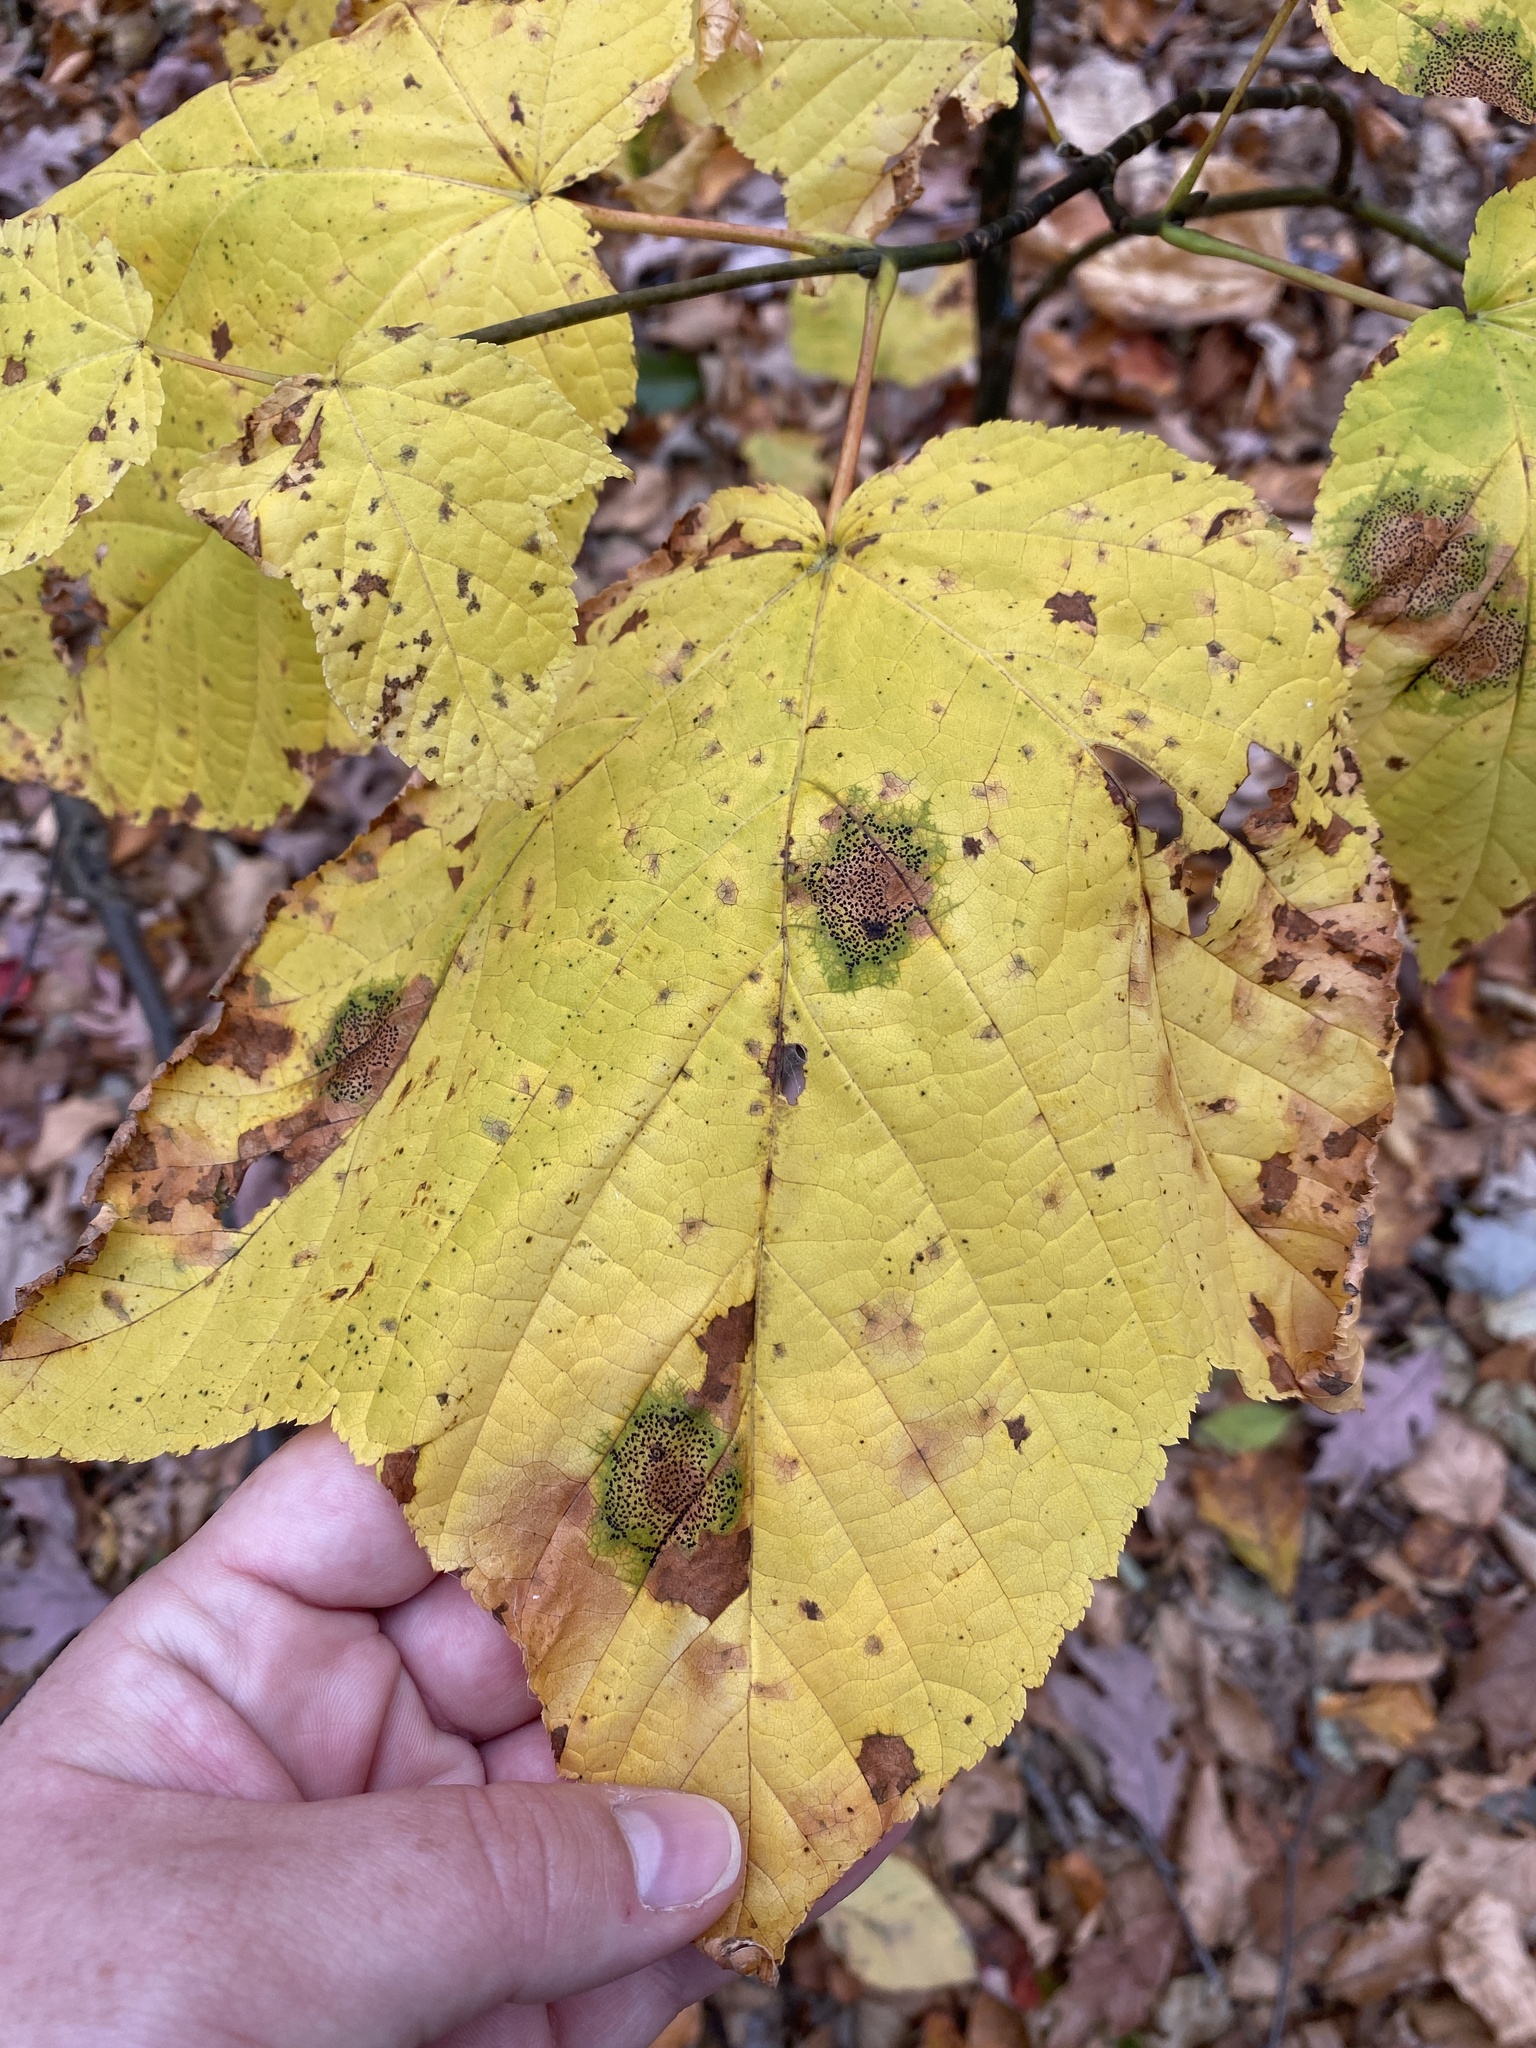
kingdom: Fungi
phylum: Ascomycota
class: Leotiomycetes
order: Rhytismatales
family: Rhytismataceae
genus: Rhytisma
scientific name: Rhytisma punctatum
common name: Speckled tar spot
